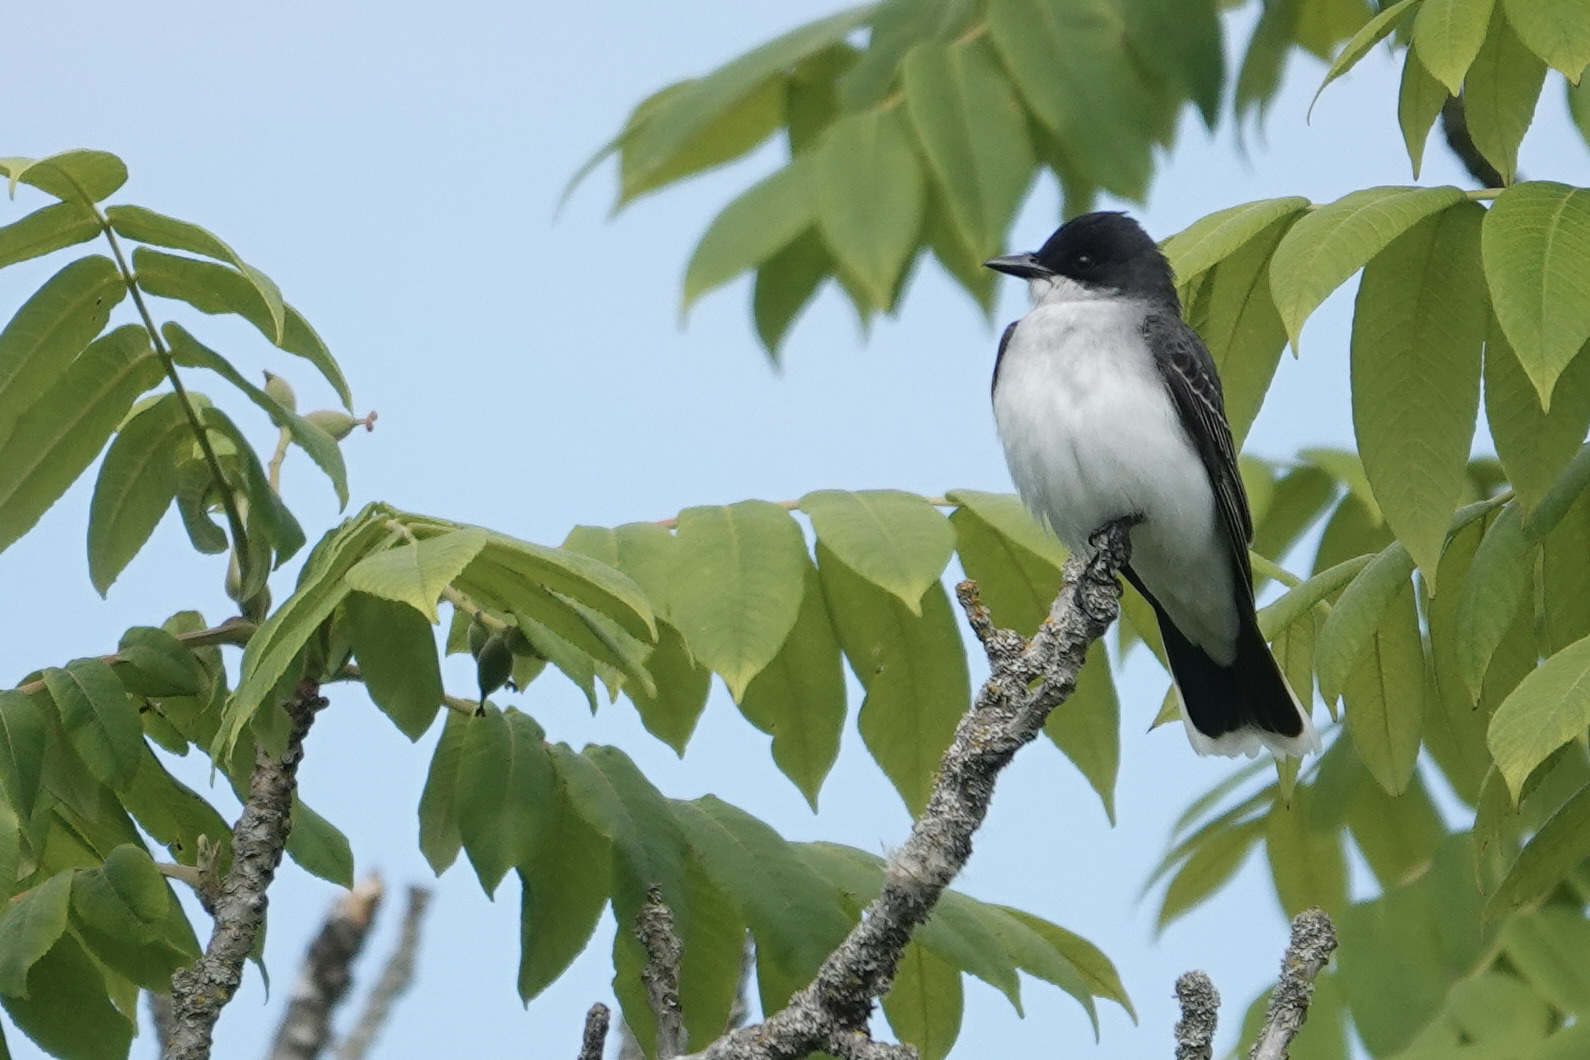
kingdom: Animalia
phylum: Chordata
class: Aves
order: Passeriformes
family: Tyrannidae
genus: Tyrannus
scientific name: Tyrannus tyrannus
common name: Eastern kingbird
